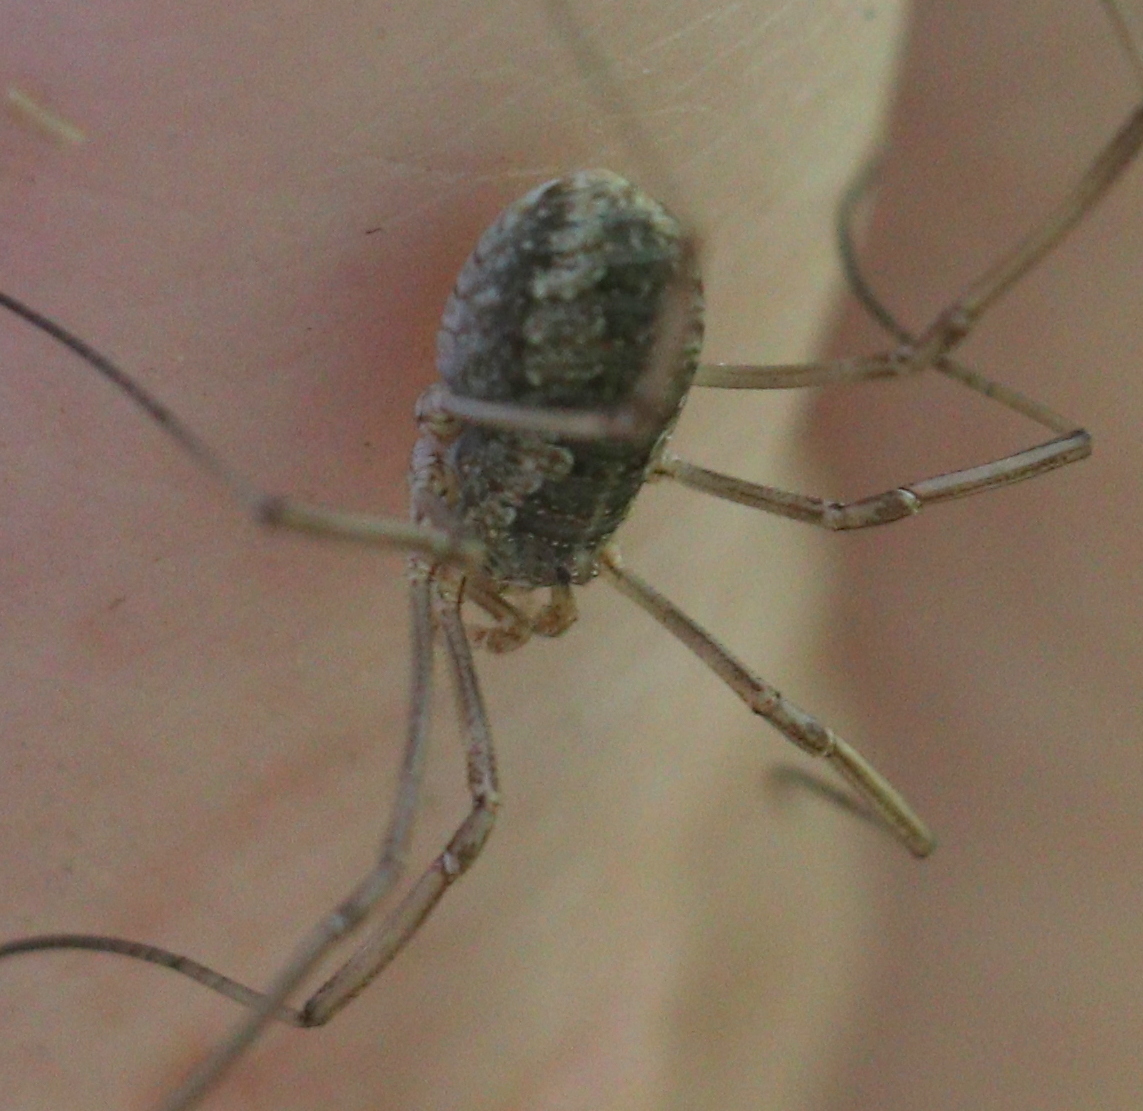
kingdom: Animalia
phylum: Arthropoda
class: Arachnida
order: Opiliones
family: Phalangiidae
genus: Phalangium
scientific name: Phalangium opilio
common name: Daddy longleg
